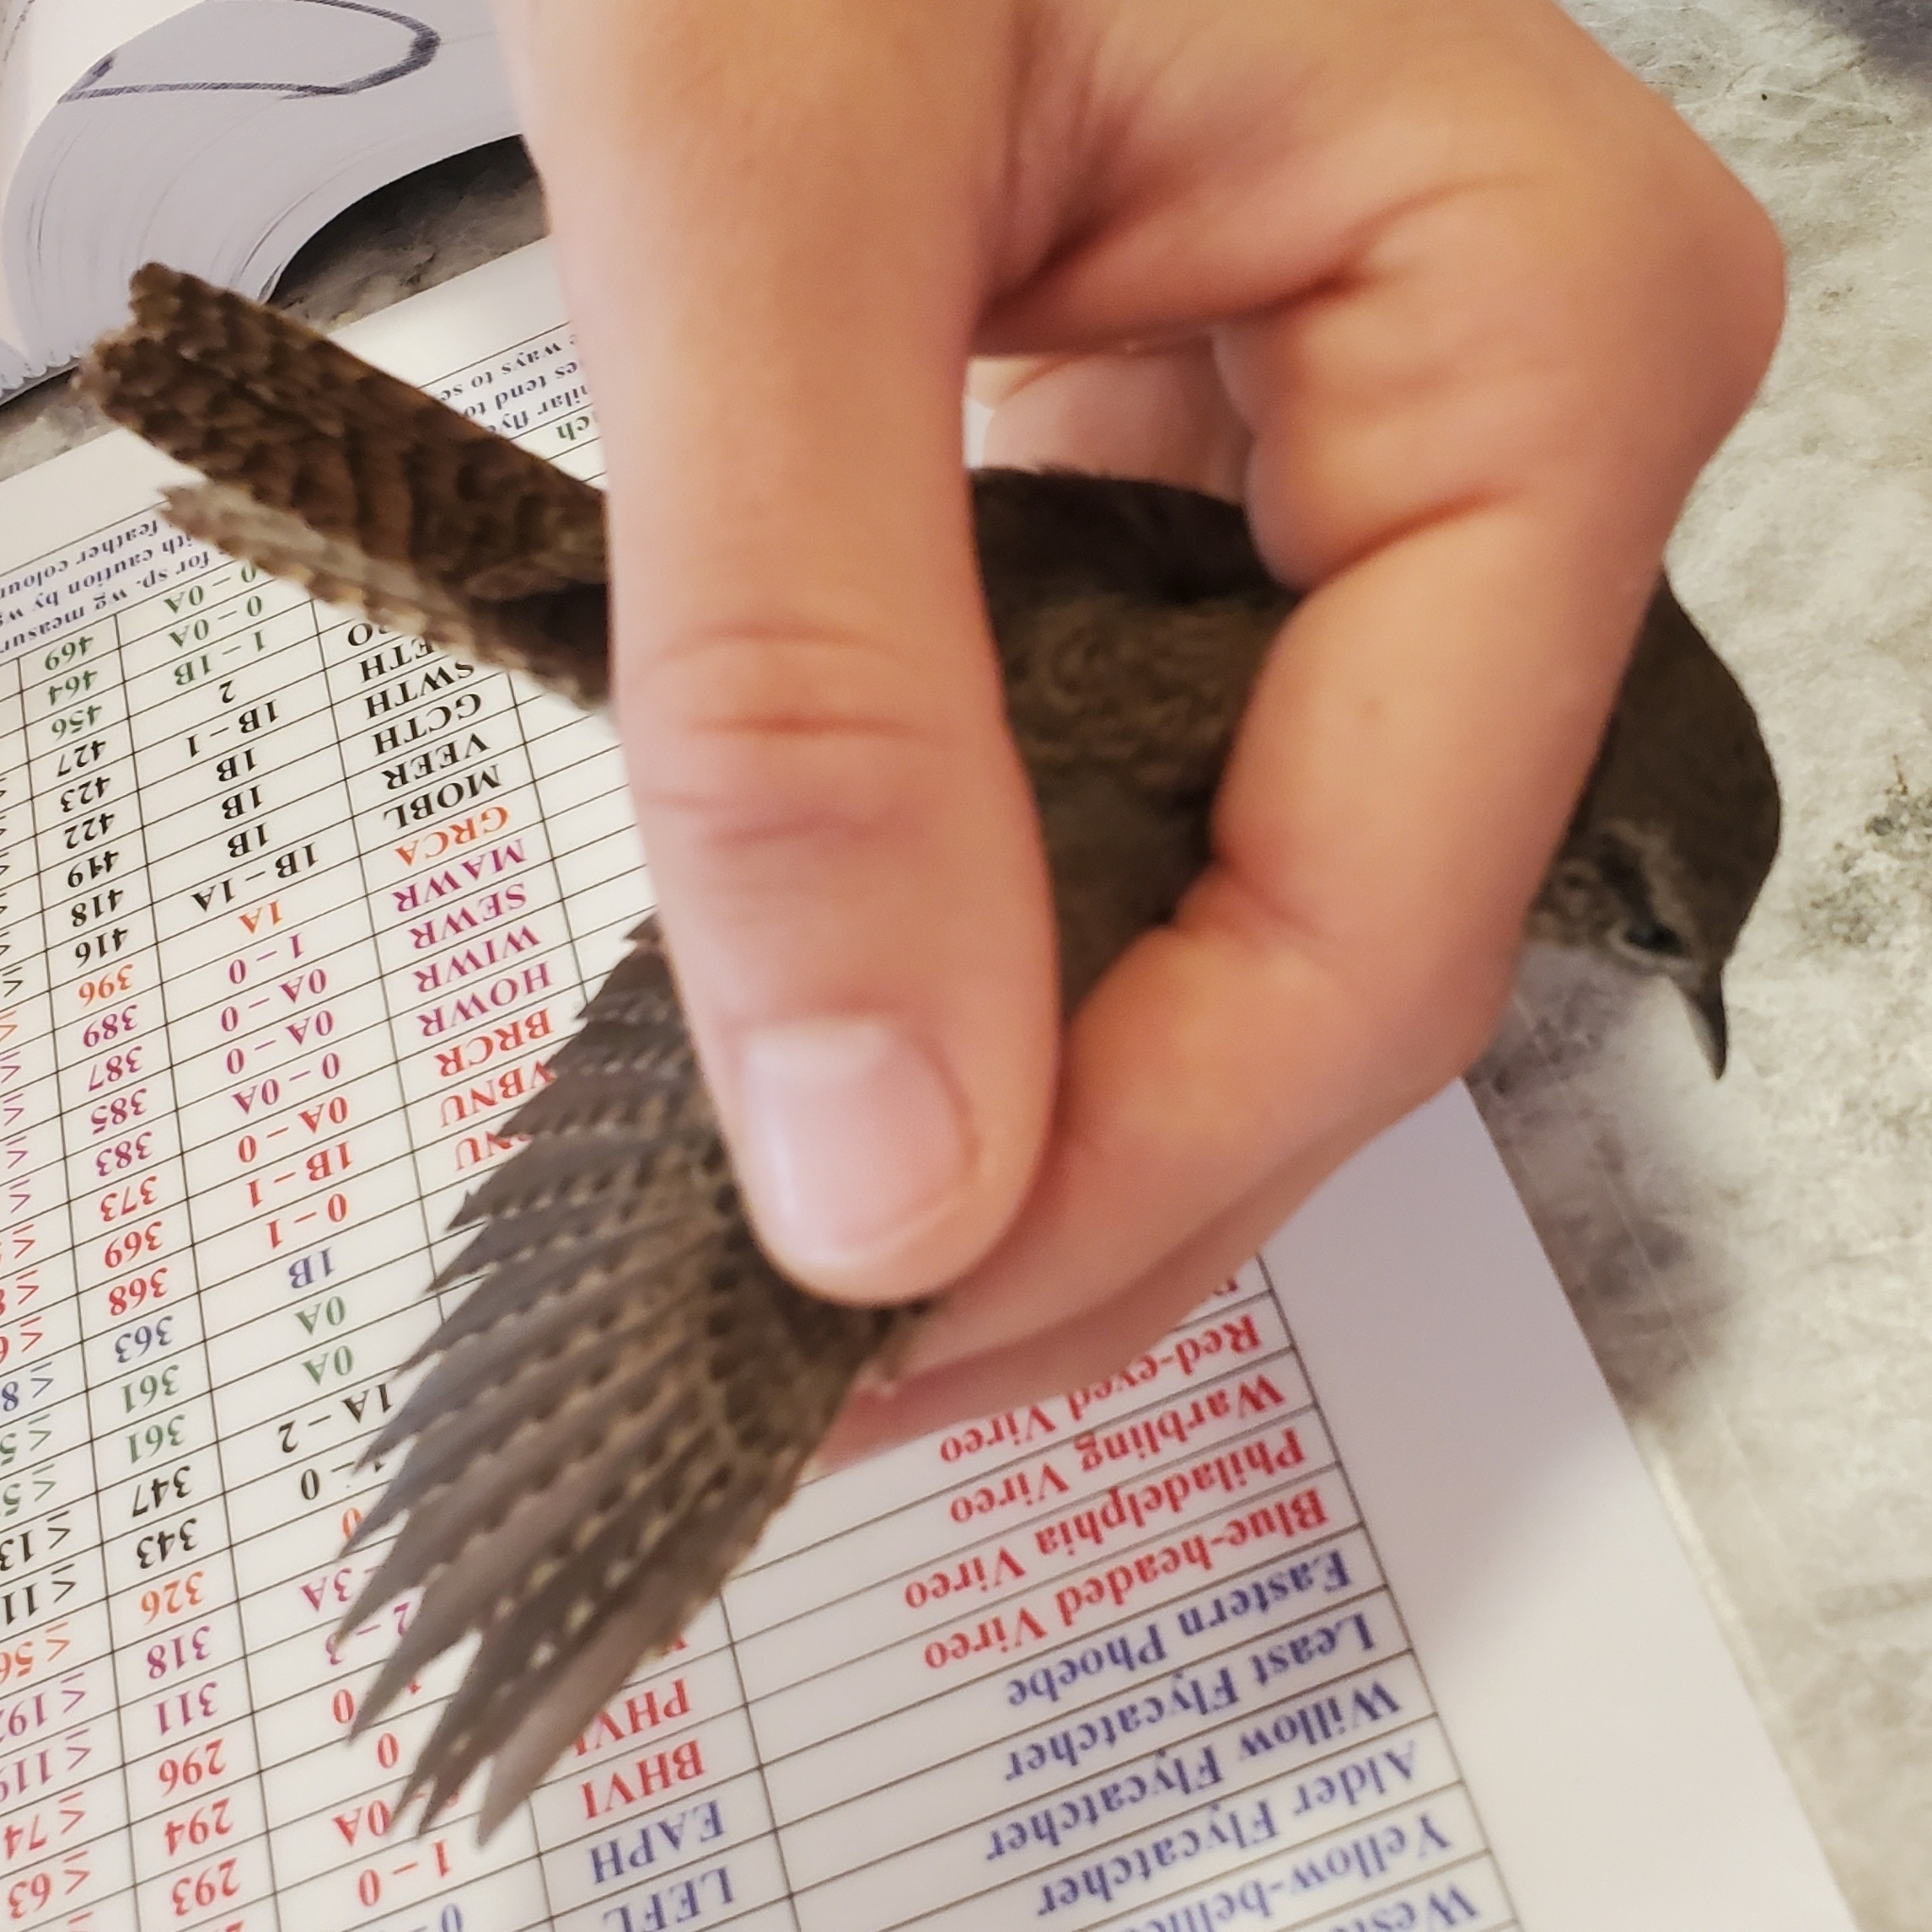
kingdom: Animalia
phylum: Chordata
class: Aves
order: Passeriformes
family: Troglodytidae
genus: Troglodytes
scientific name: Troglodytes aedon
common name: House wren
